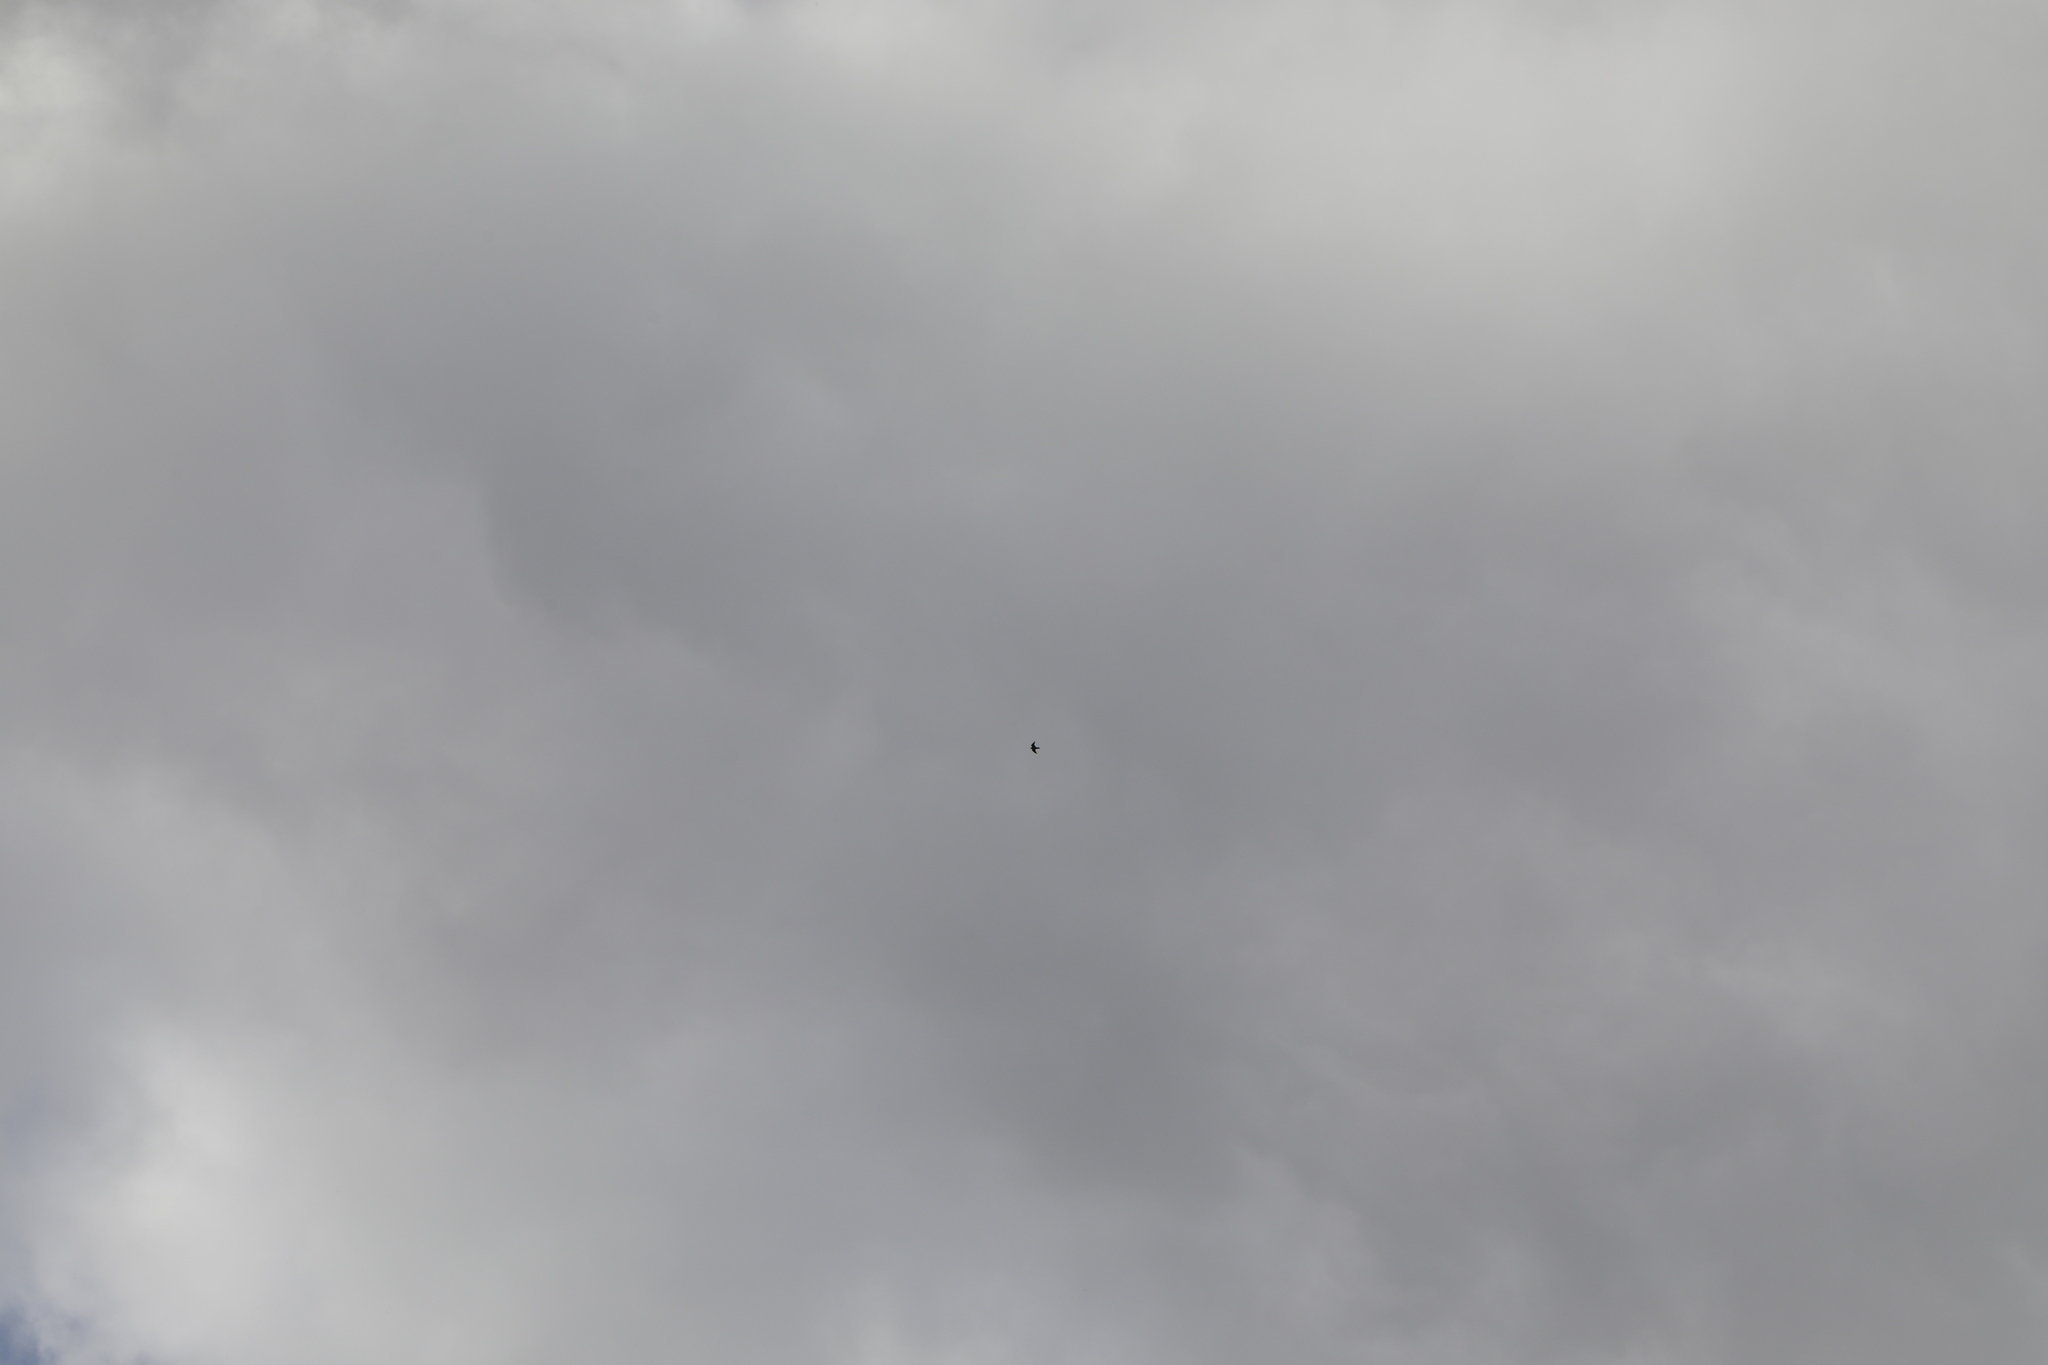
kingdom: Animalia
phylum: Chordata
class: Aves
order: Falconiformes
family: Falconidae
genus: Falco
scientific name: Falco peregrinus
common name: Peregrine falcon
